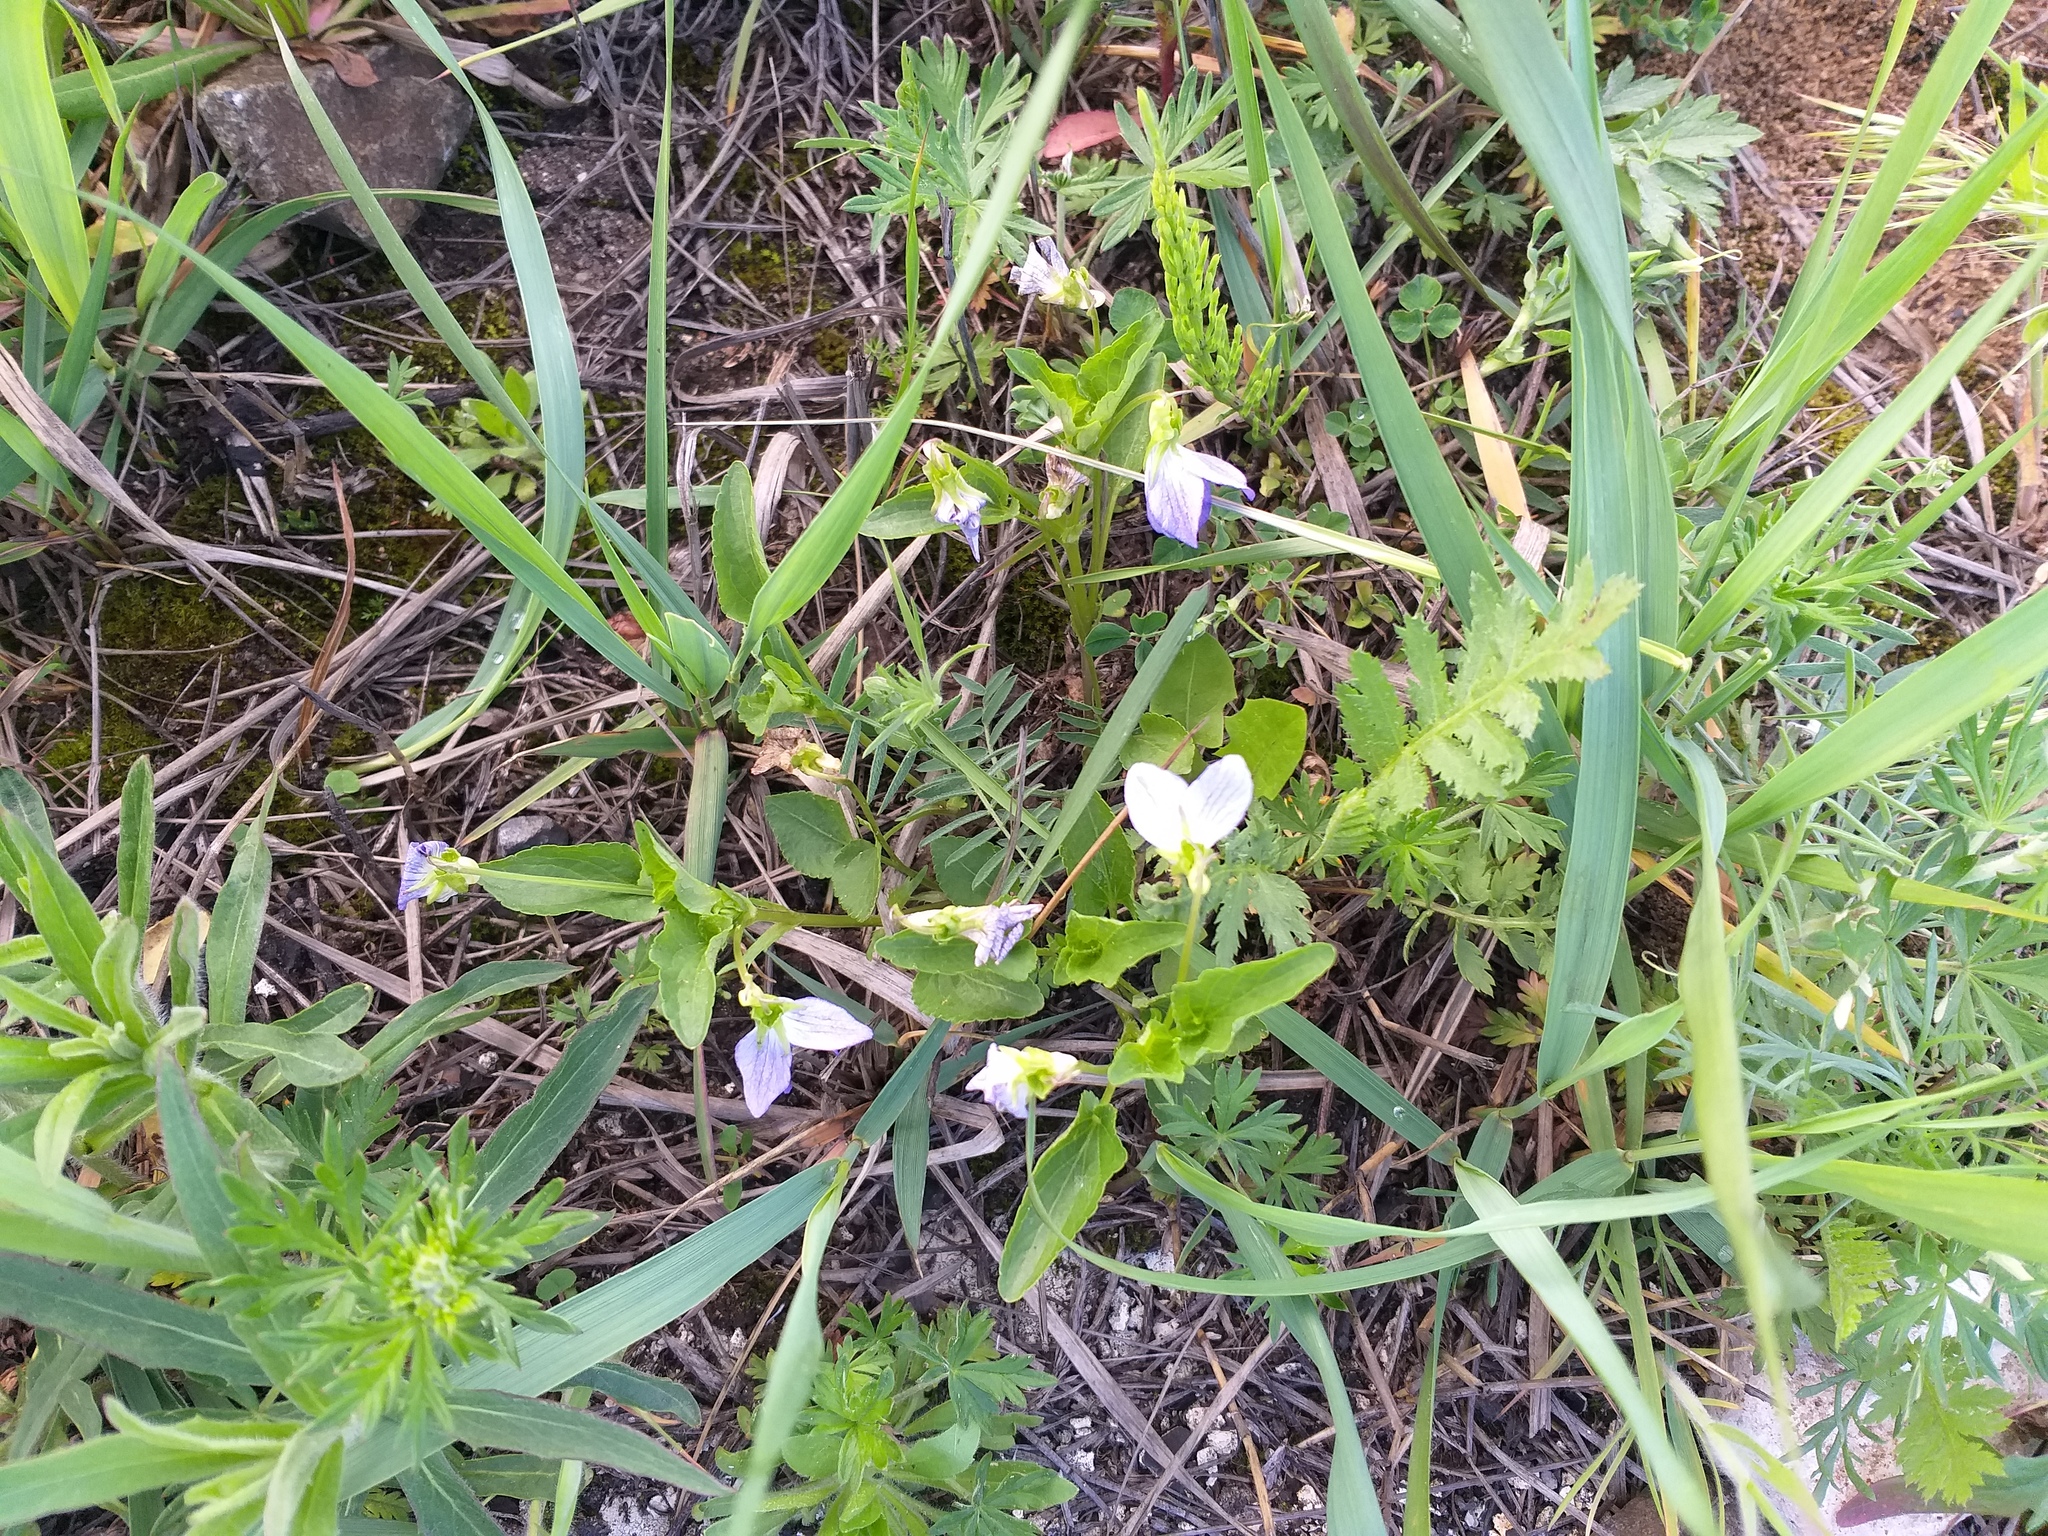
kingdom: Plantae
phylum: Tracheophyta
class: Magnoliopsida
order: Malpighiales
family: Violaceae
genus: Viola
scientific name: Viola canina
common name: Heath dog-violet
